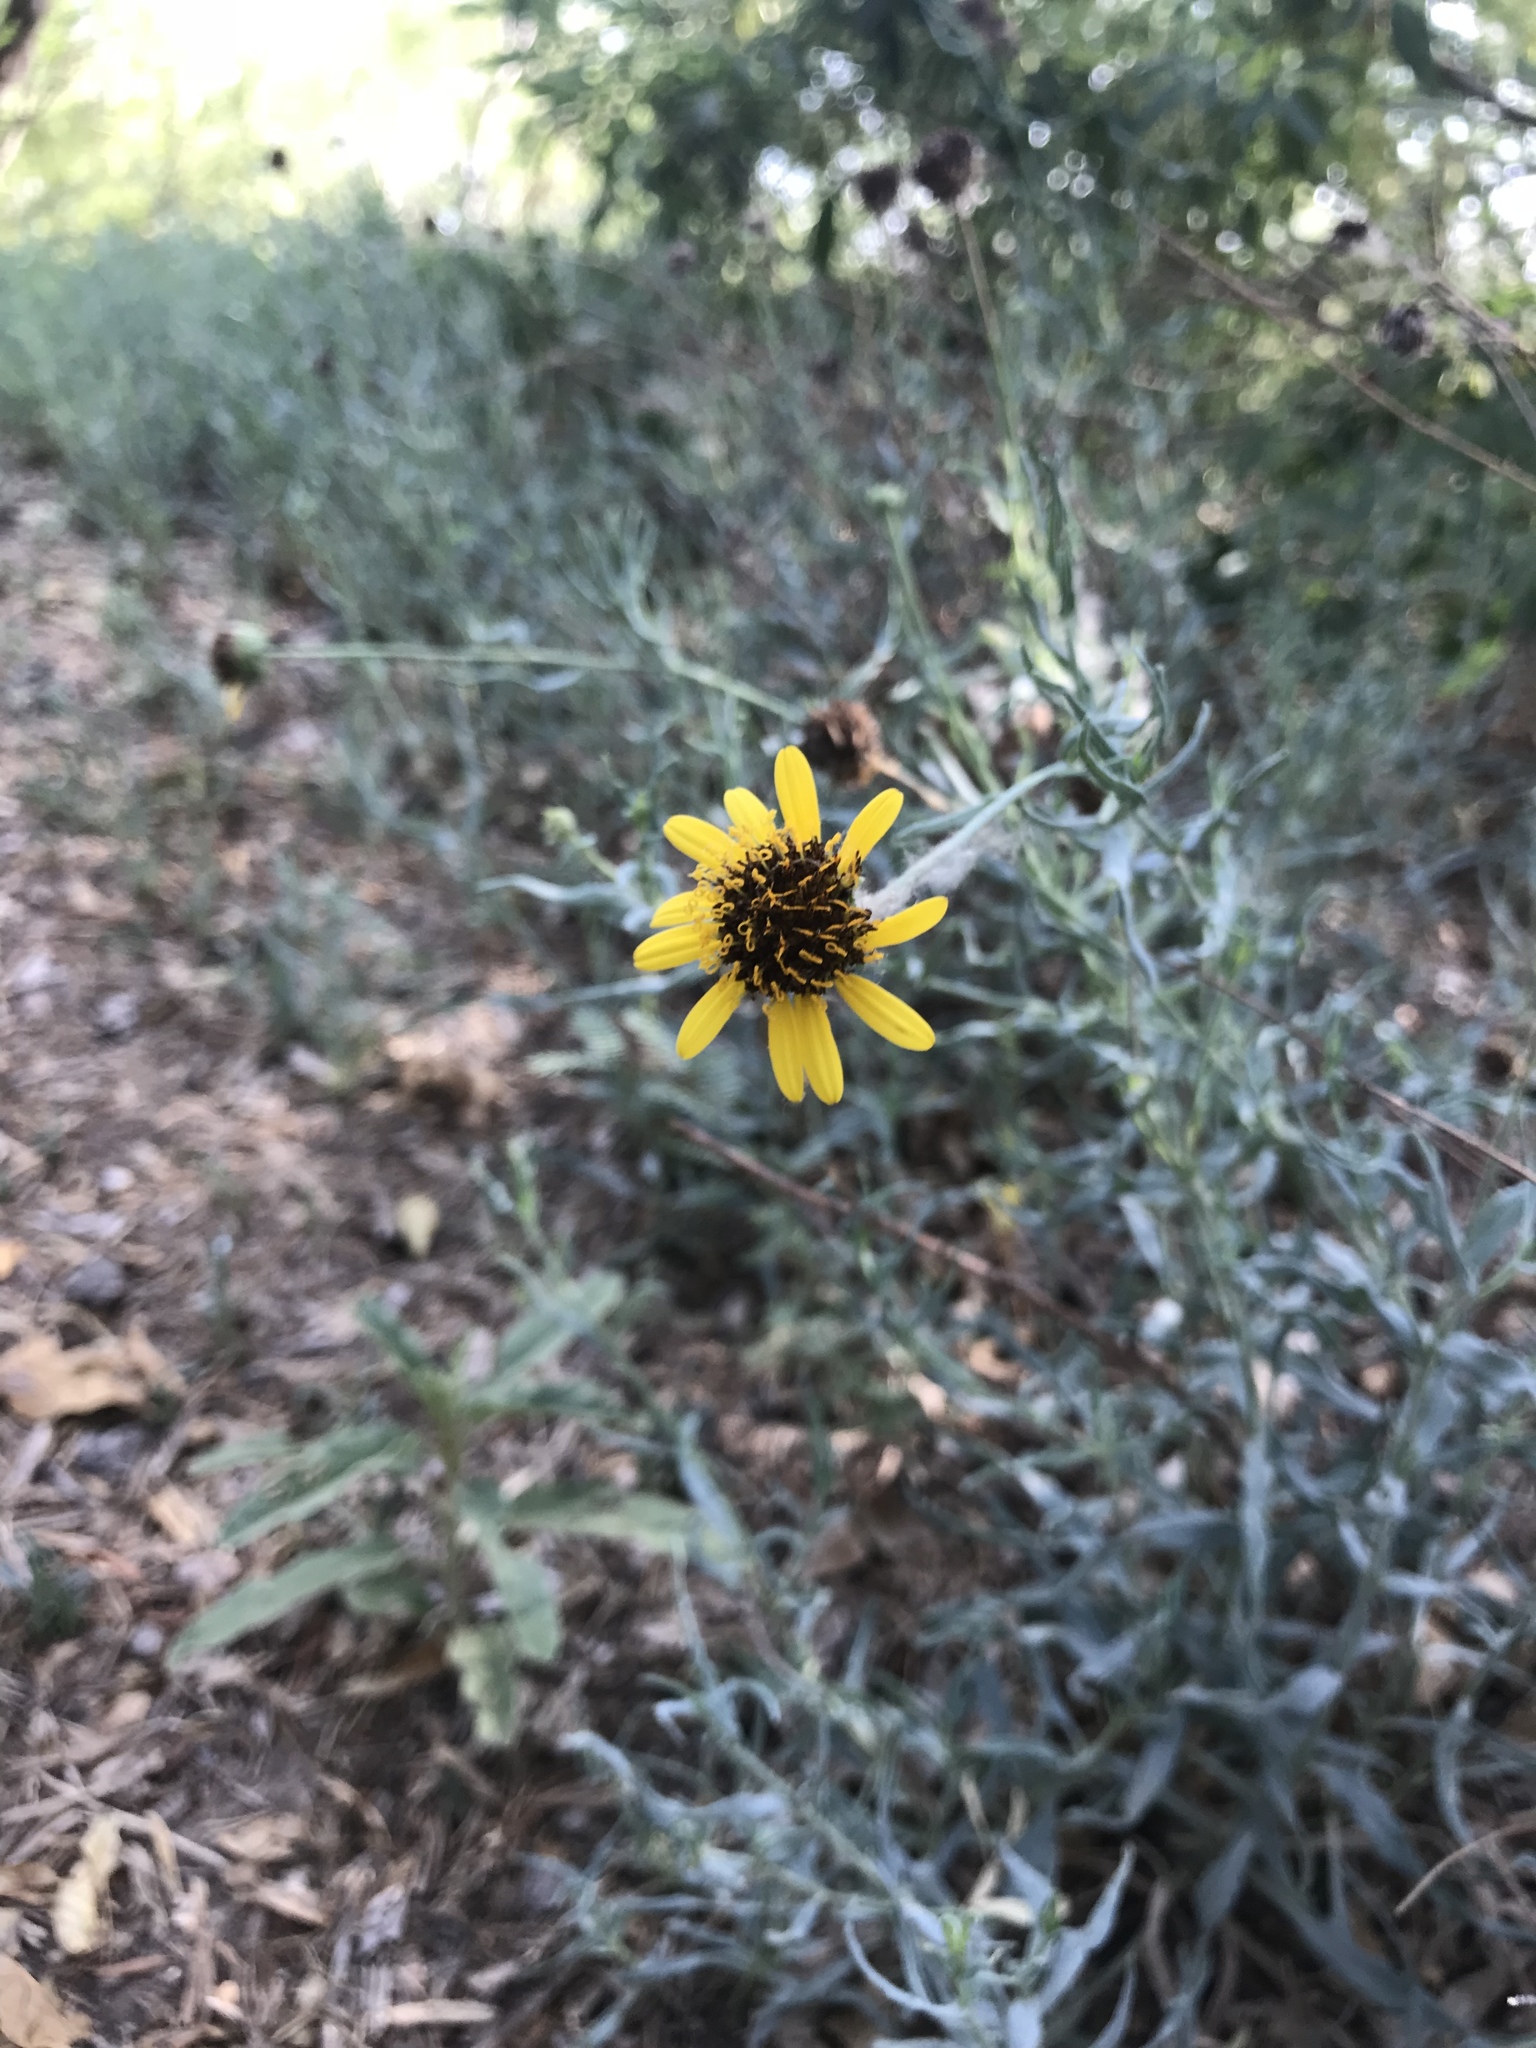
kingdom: Plantae
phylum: Tracheophyta
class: Magnoliopsida
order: Asterales
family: Asteraceae
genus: Helianthus
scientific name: Helianthus ciliaris
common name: Texas blueweed
